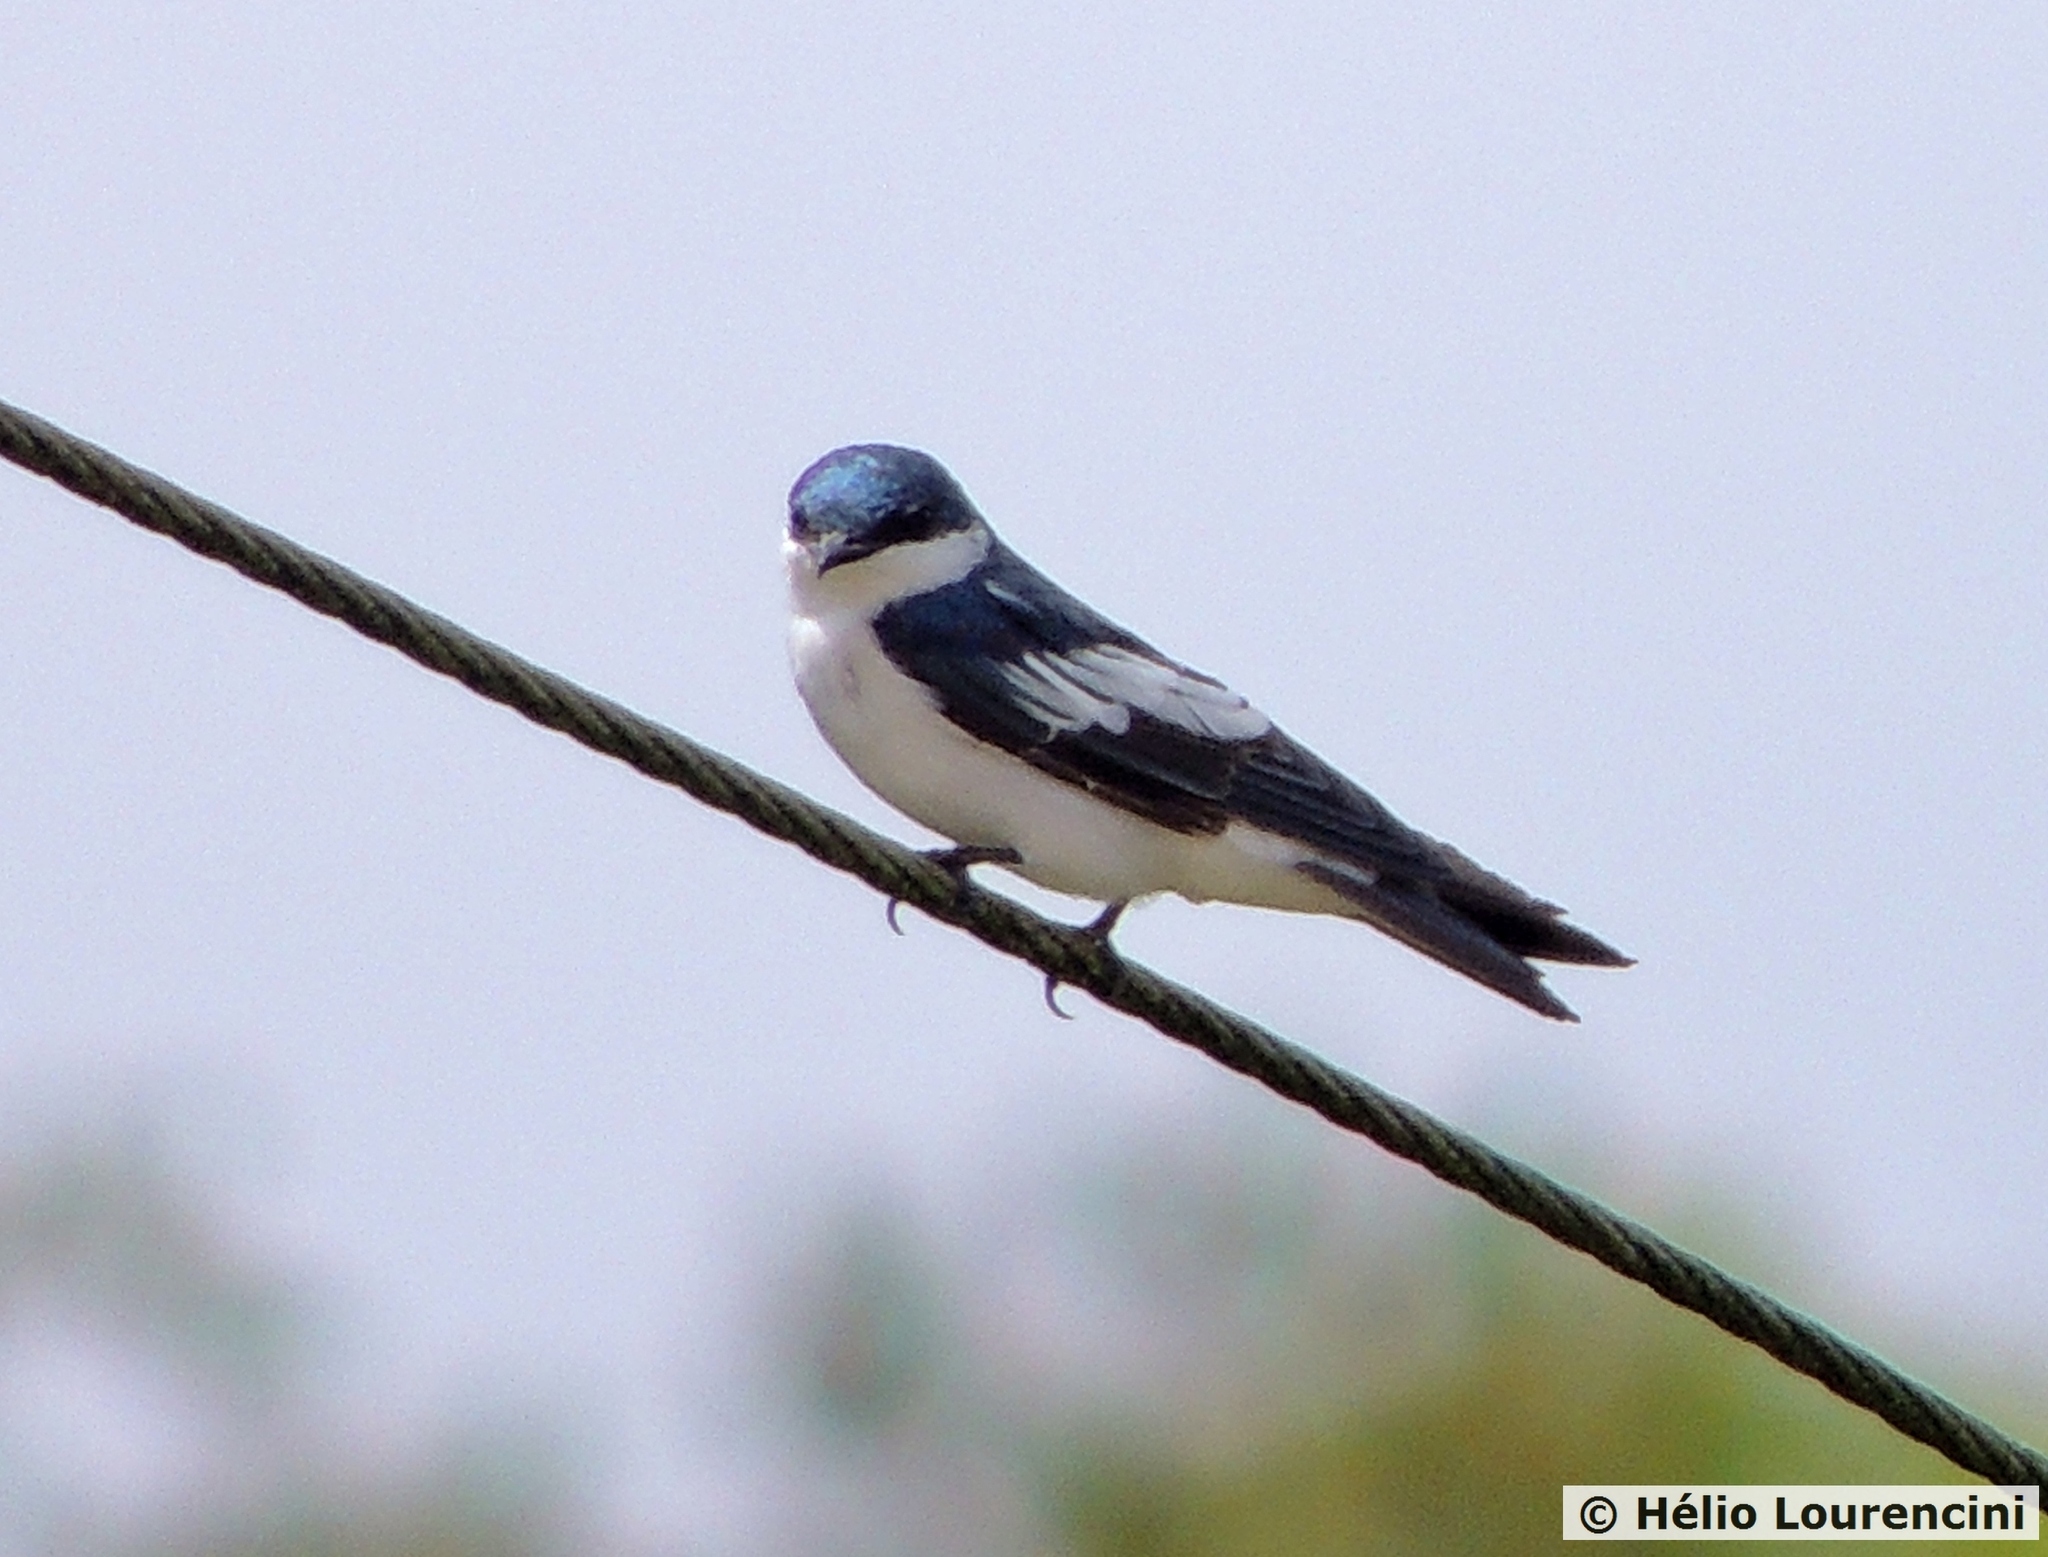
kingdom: Animalia
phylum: Chordata
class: Aves
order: Passeriformes
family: Hirundinidae
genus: Tachycineta
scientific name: Tachycineta albiventer
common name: White-winged swallow
